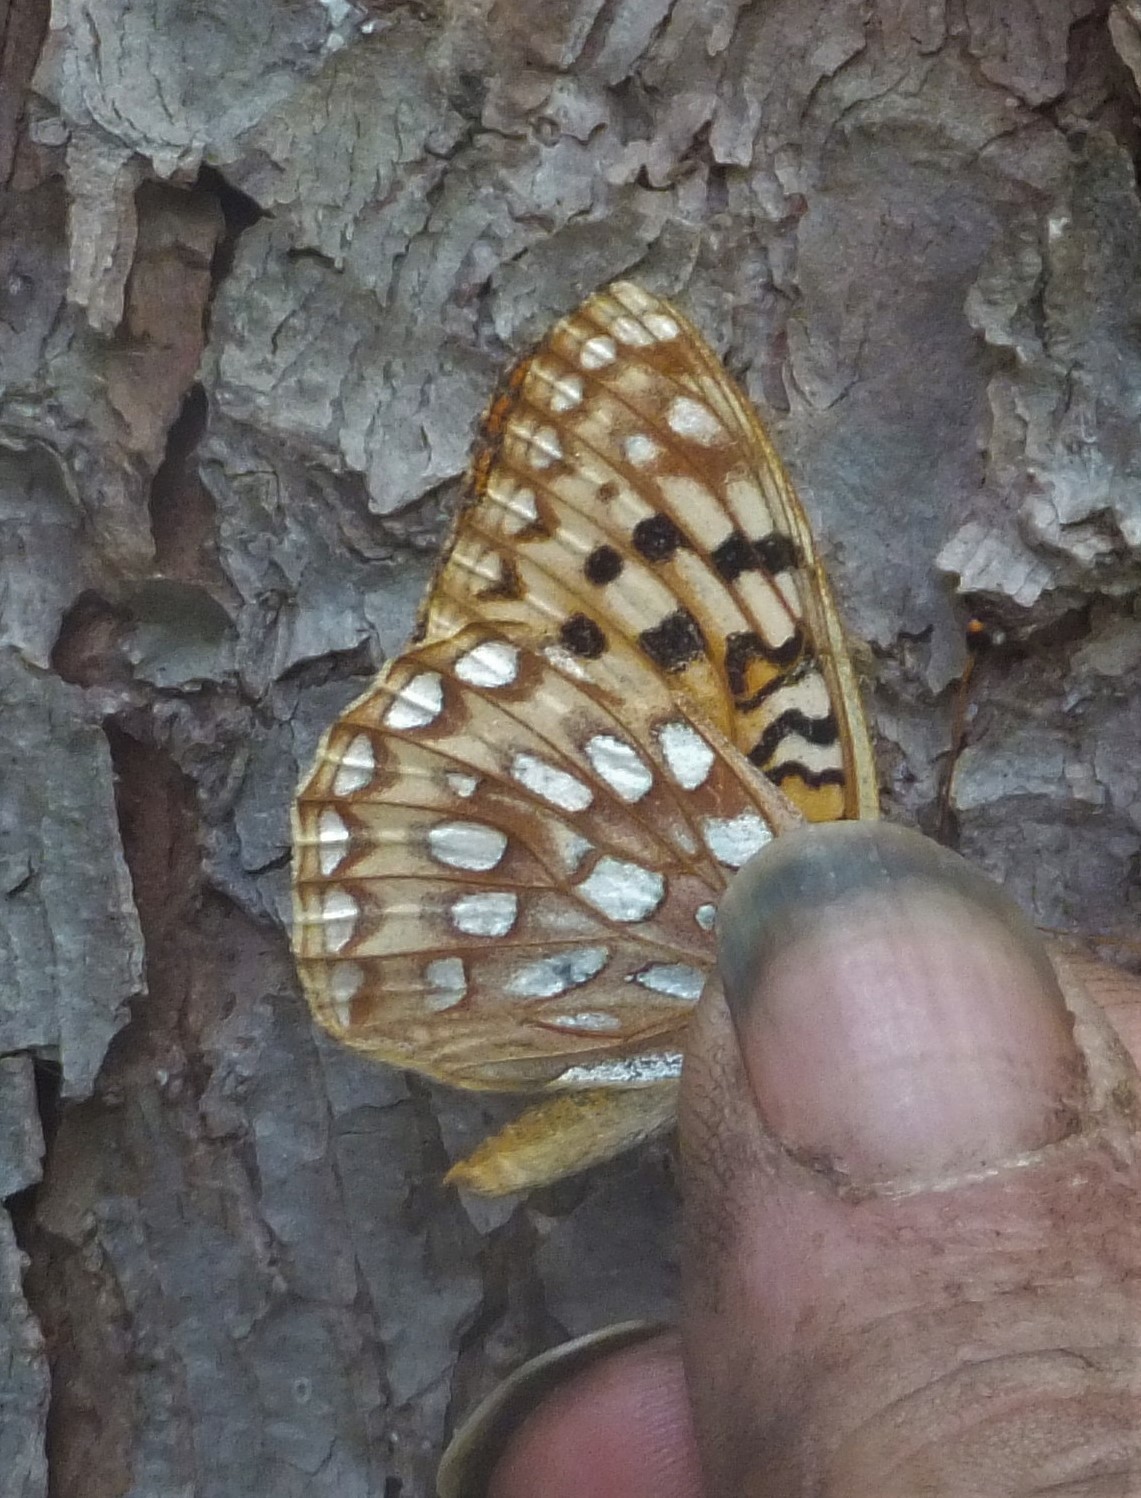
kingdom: Animalia
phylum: Arthropoda
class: Insecta
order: Lepidoptera
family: Nymphalidae
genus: Speyeria
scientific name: Speyeria zerene
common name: Zerene fritillary
